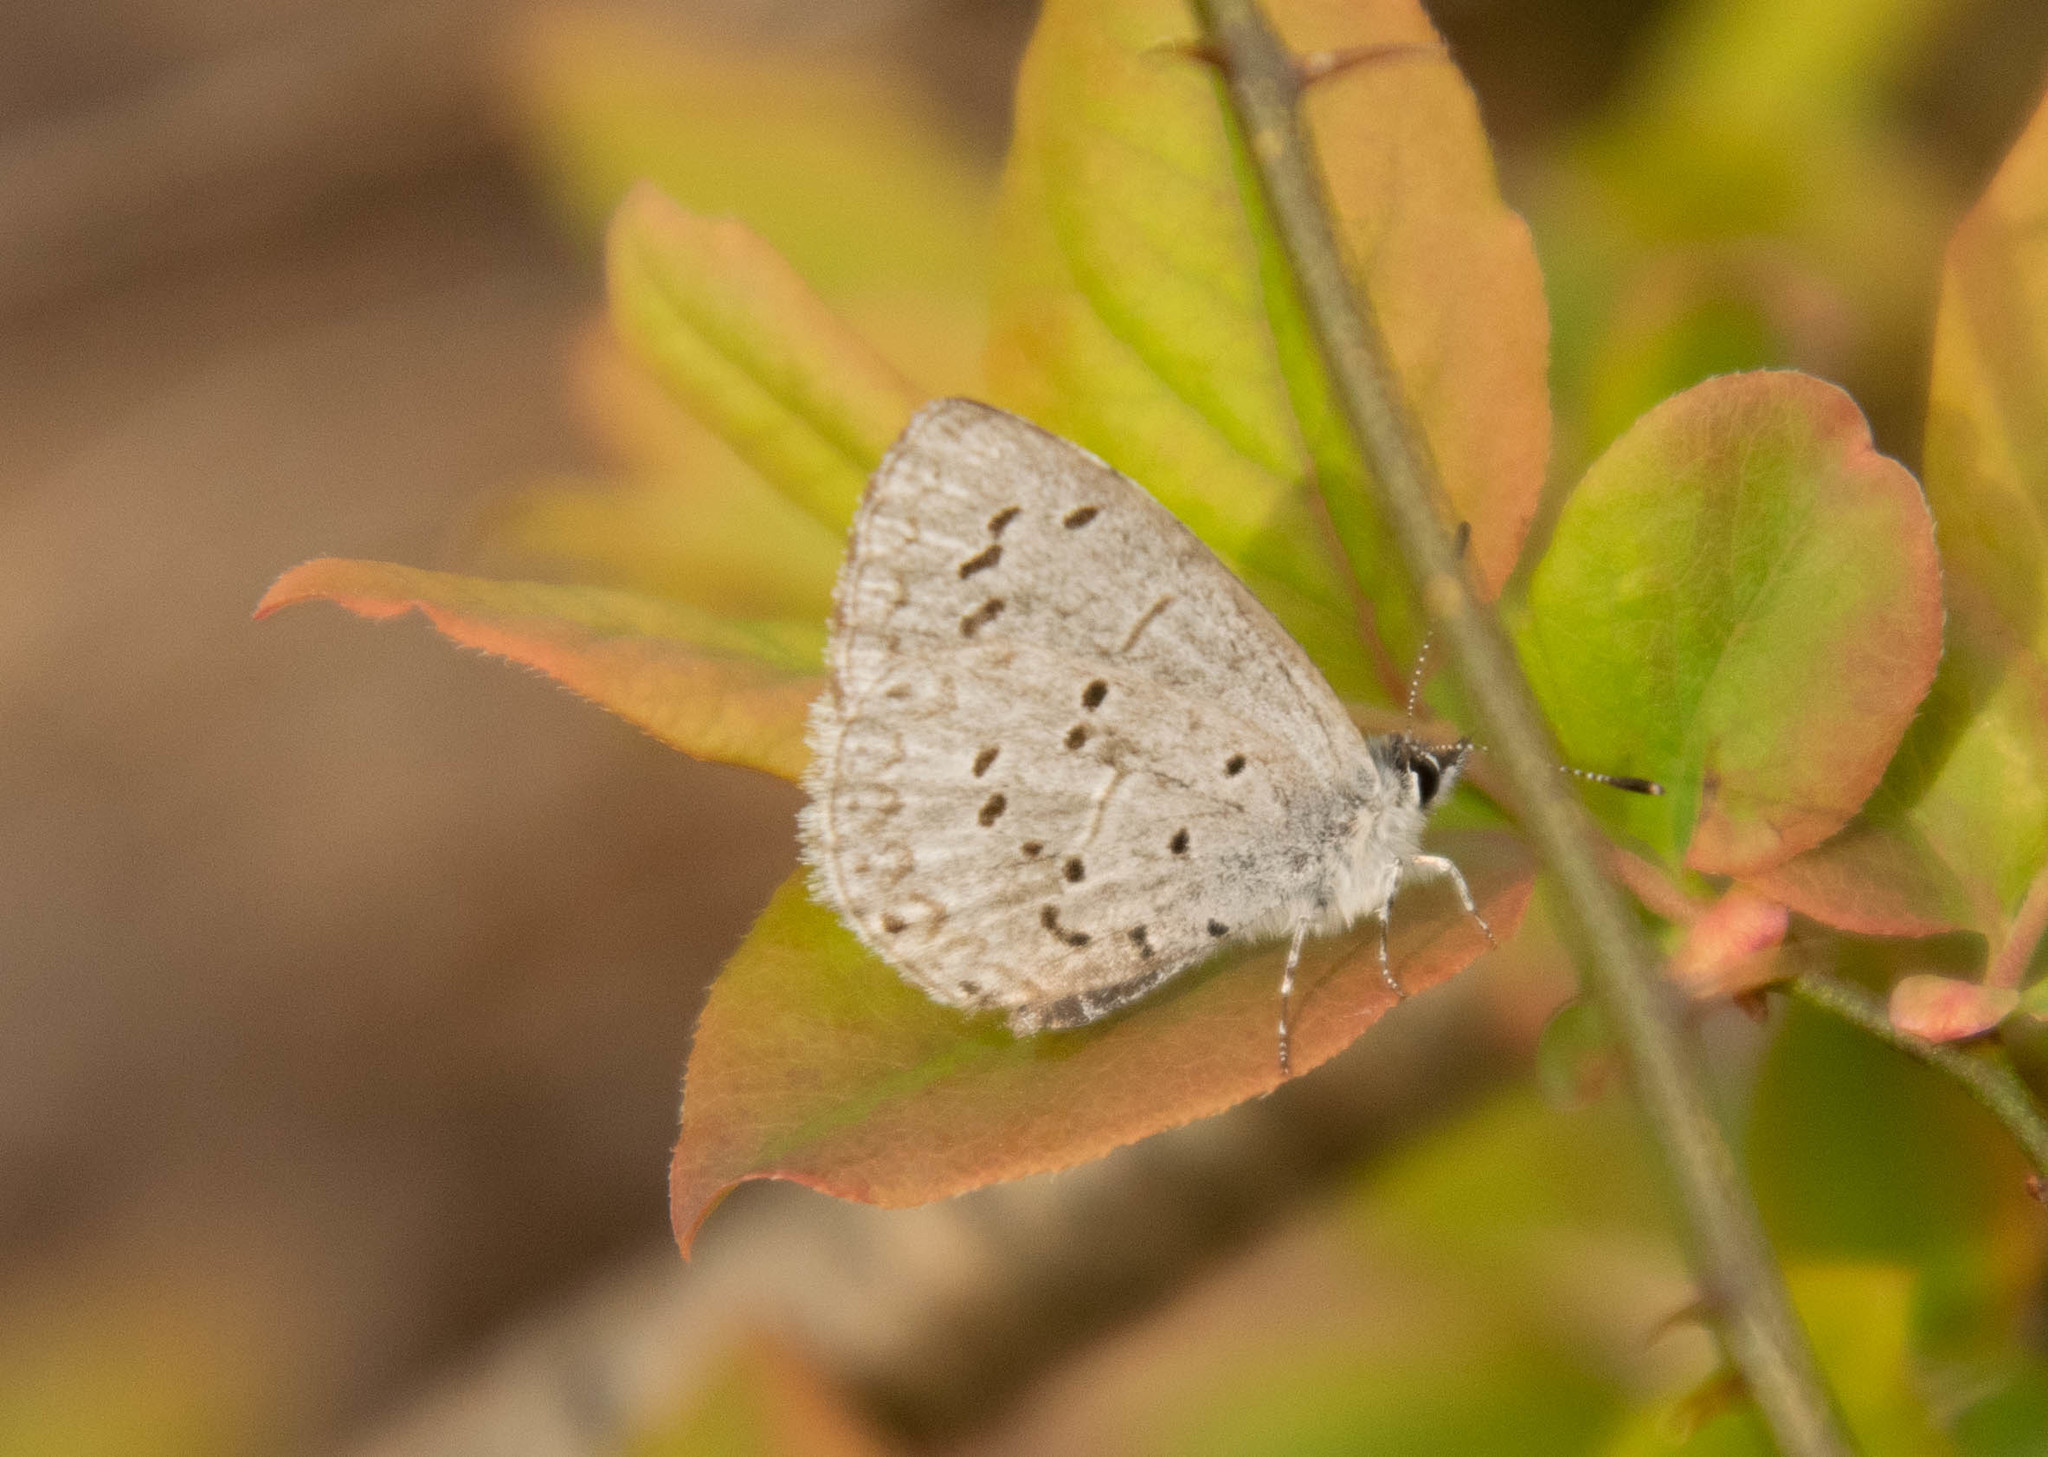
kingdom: Animalia
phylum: Arthropoda
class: Insecta
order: Lepidoptera
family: Lycaenidae
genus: Celastrina
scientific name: Celastrina ladon
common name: Spring azure
